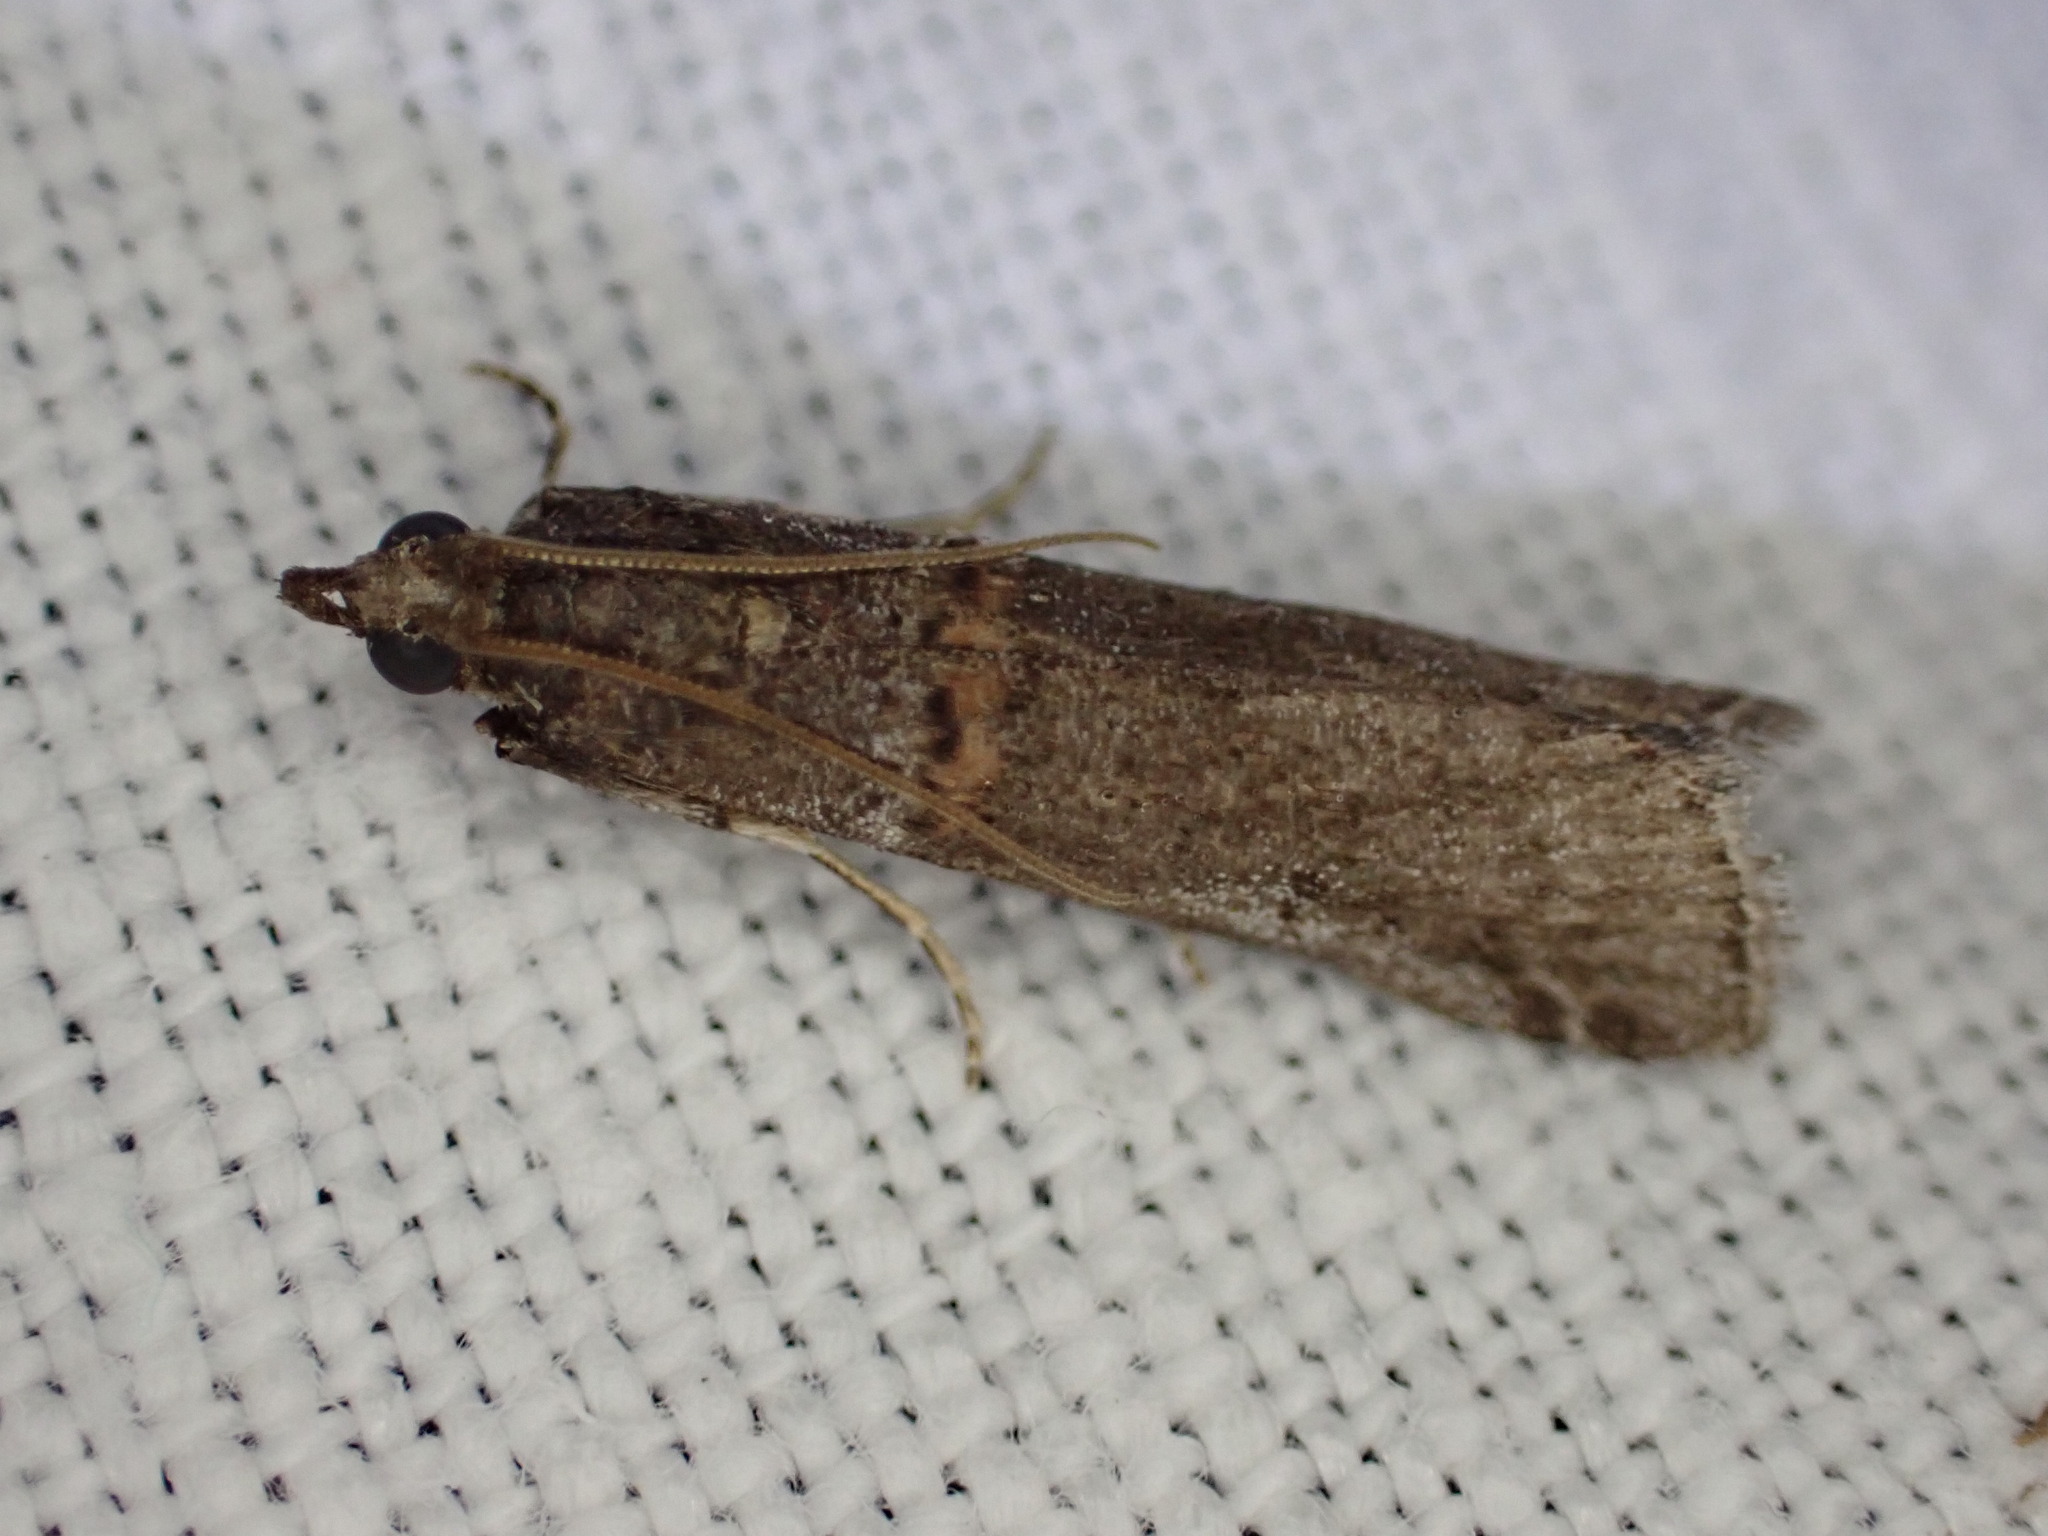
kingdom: Animalia
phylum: Arthropoda
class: Insecta
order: Lepidoptera
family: Pyralidae
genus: Acrobasis
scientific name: Acrobasis obliqua
